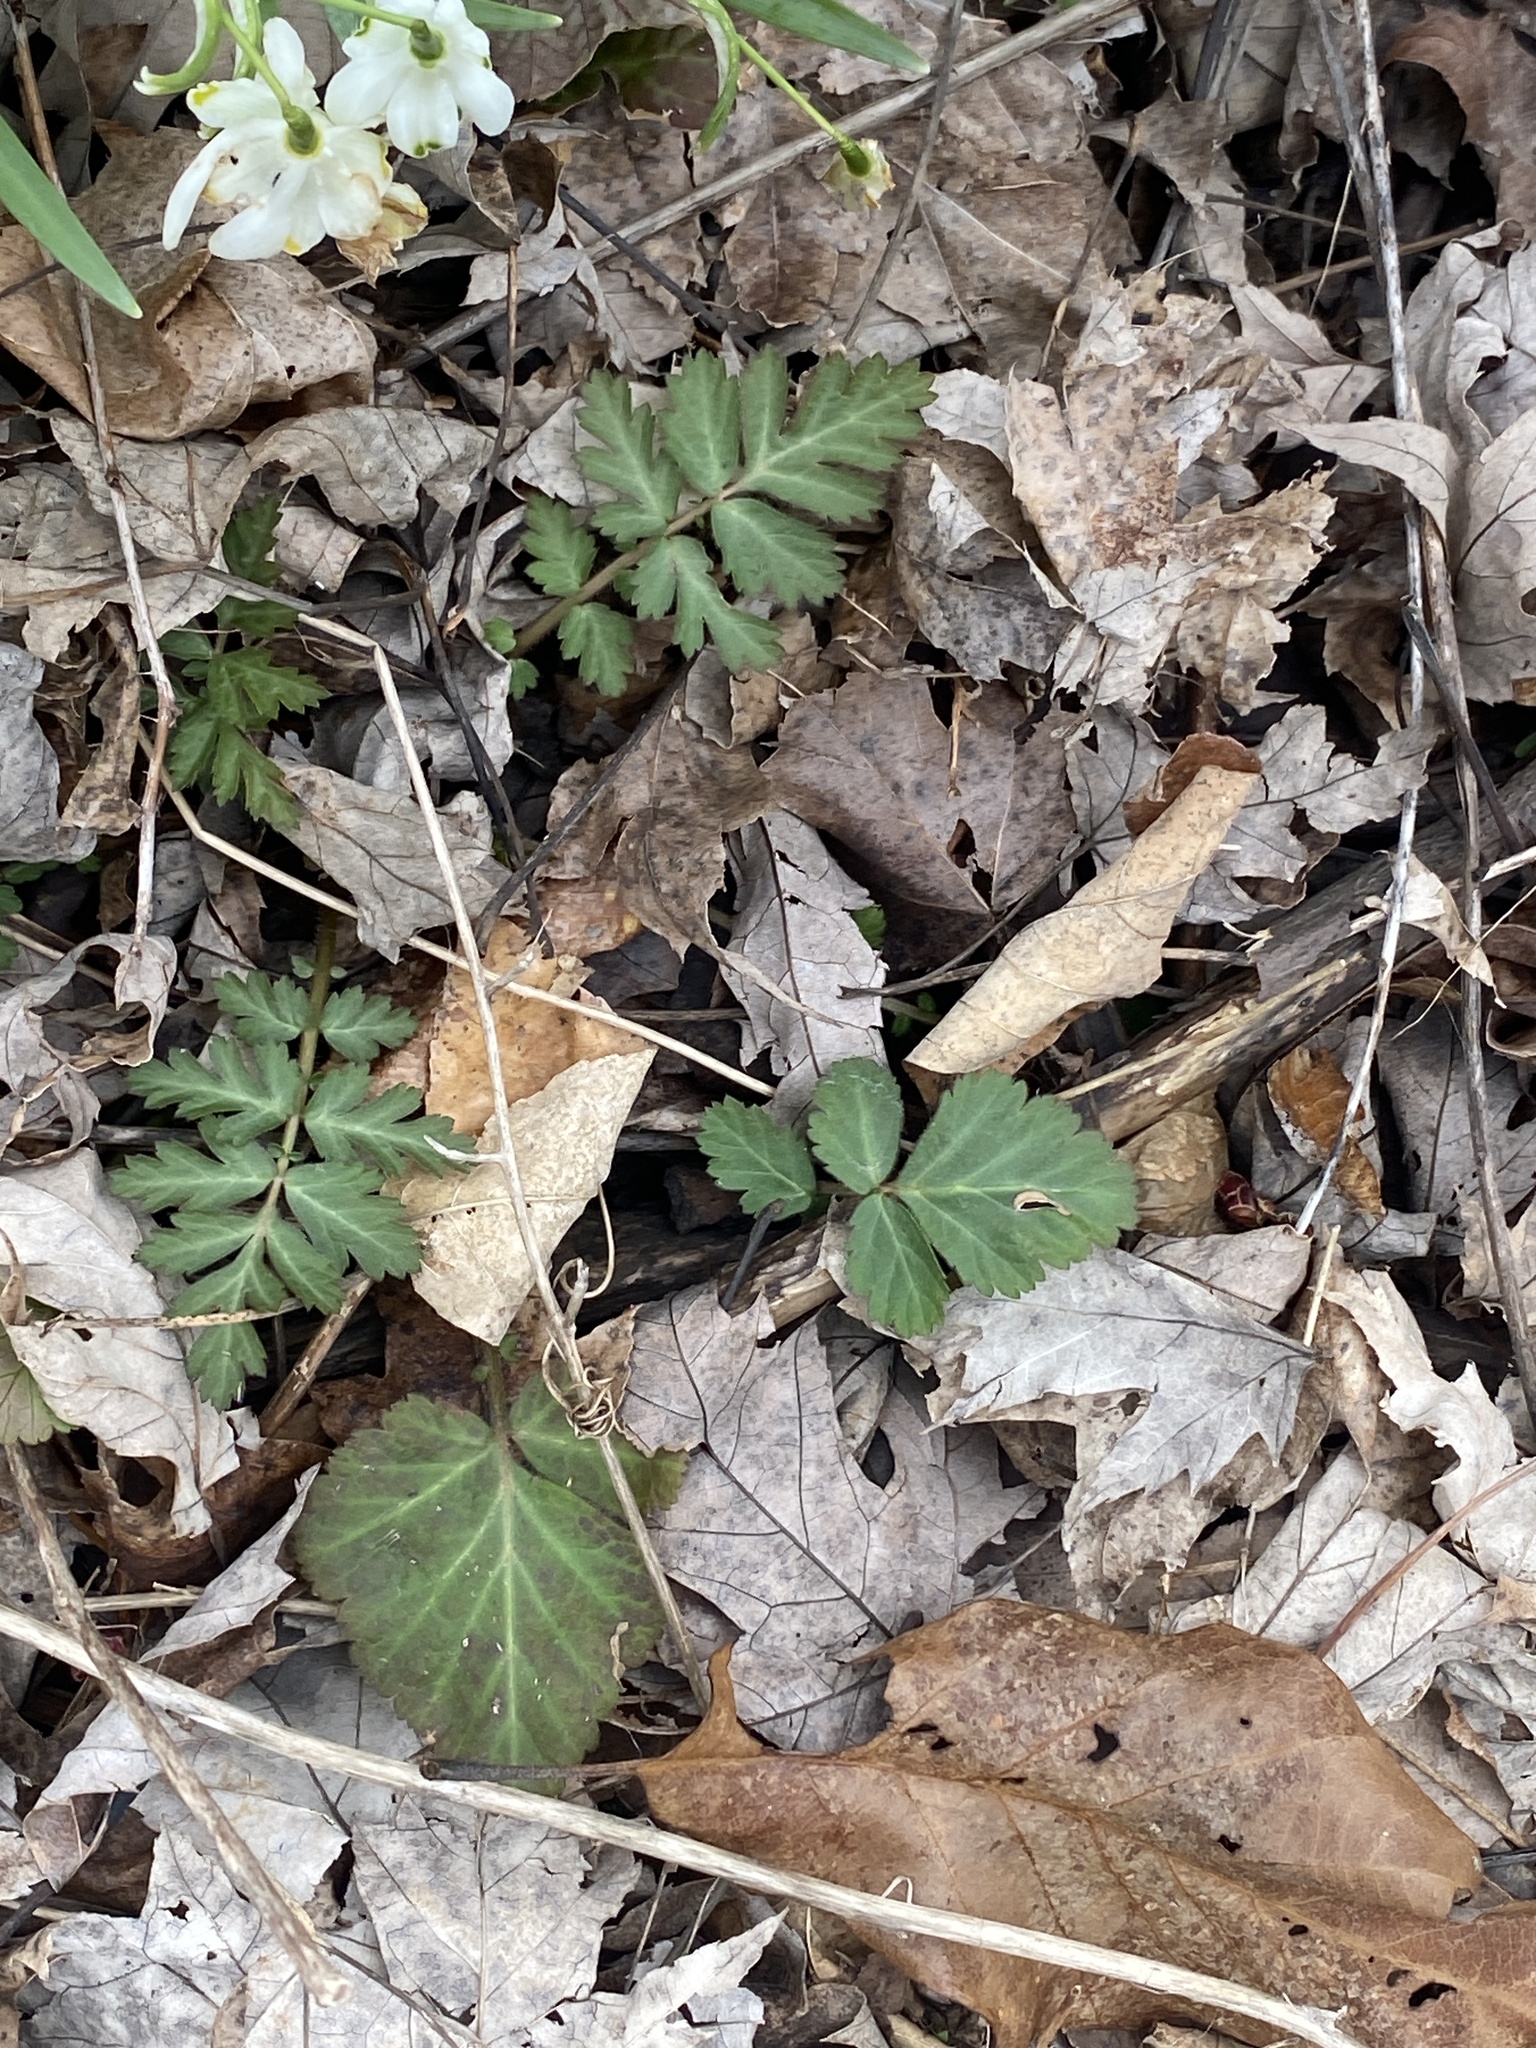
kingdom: Plantae
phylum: Tracheophyta
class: Magnoliopsida
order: Rosales
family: Rosaceae
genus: Geum
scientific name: Geum canadense
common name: White avens
